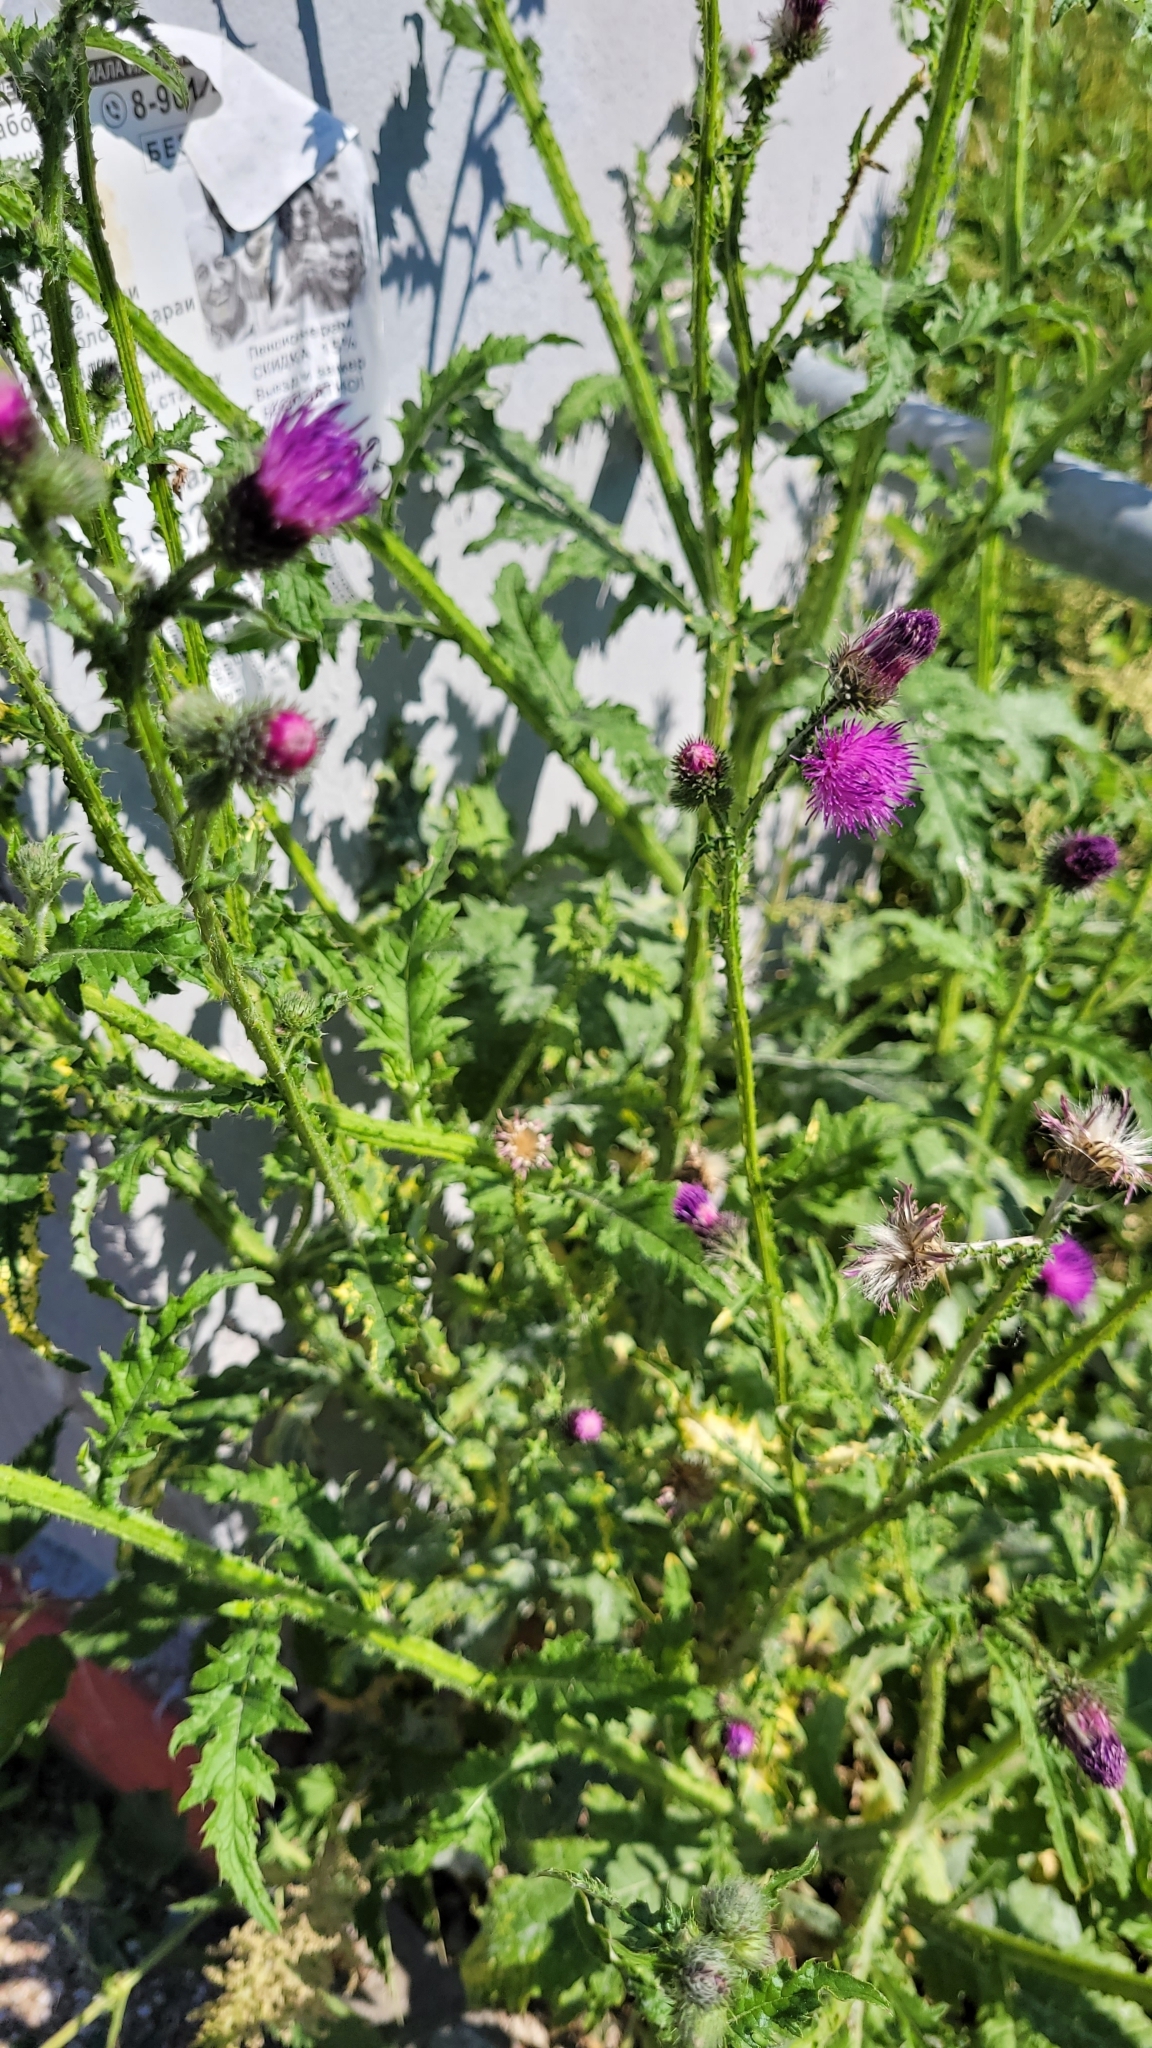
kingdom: Plantae
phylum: Tracheophyta
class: Magnoliopsida
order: Asterales
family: Asteraceae
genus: Carduus
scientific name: Carduus crispus
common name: Welted thistle
